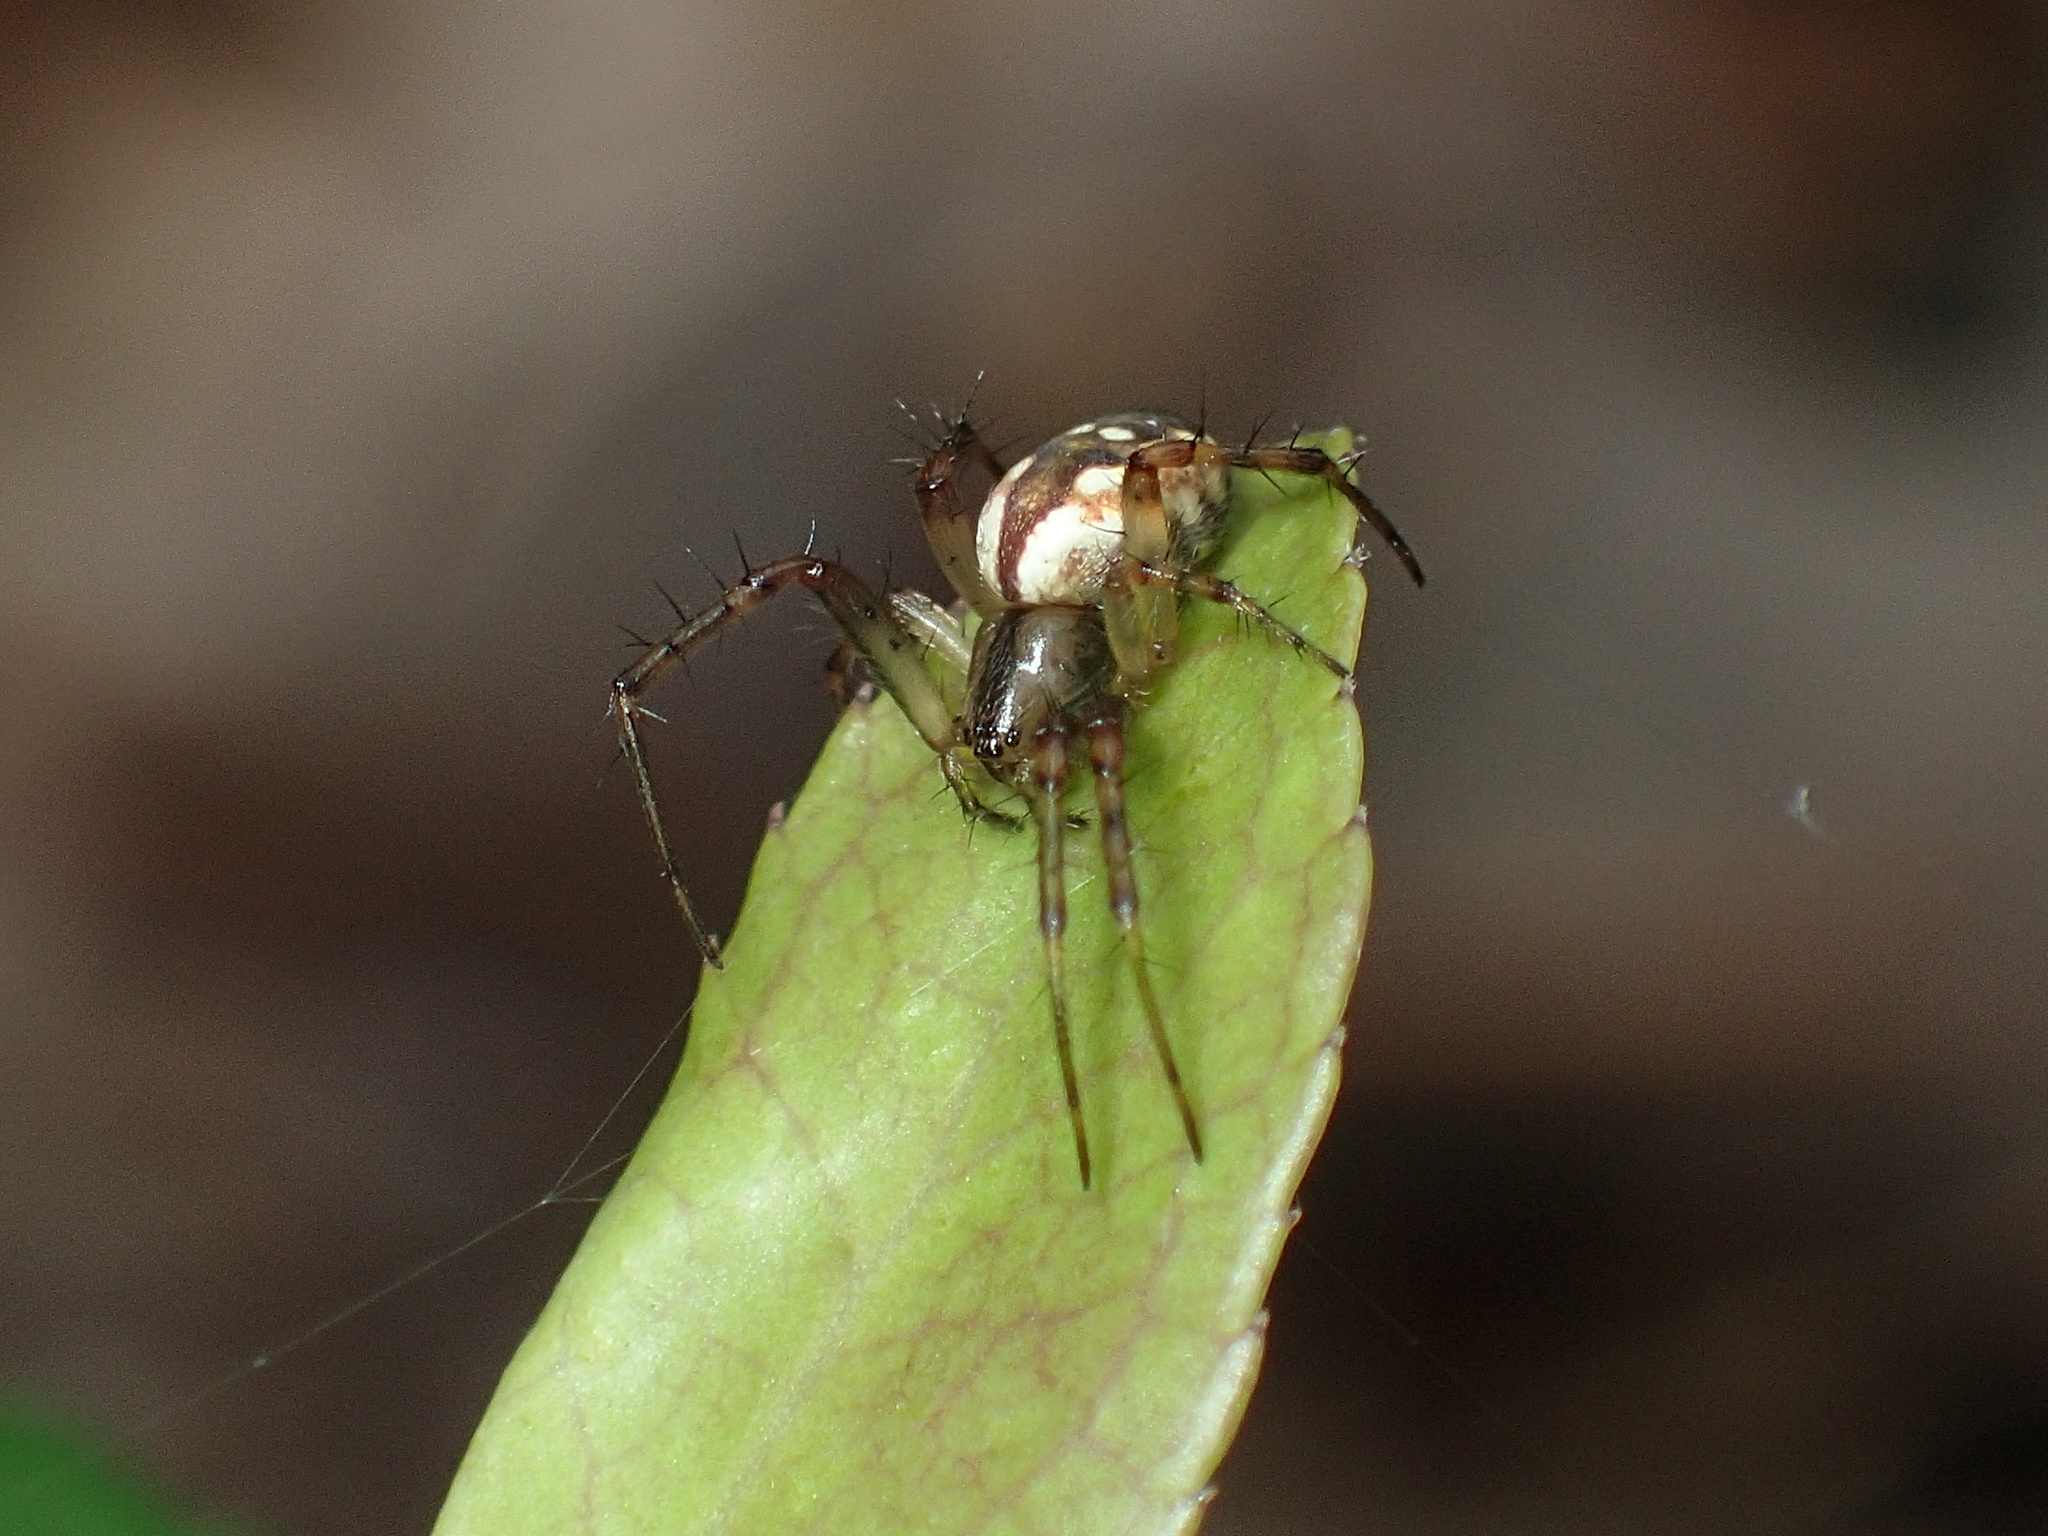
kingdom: Animalia
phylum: Arthropoda
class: Arachnida
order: Araneae
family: Araneidae
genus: Mangora
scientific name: Mangora placida
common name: Tuft-legged orbweaver
